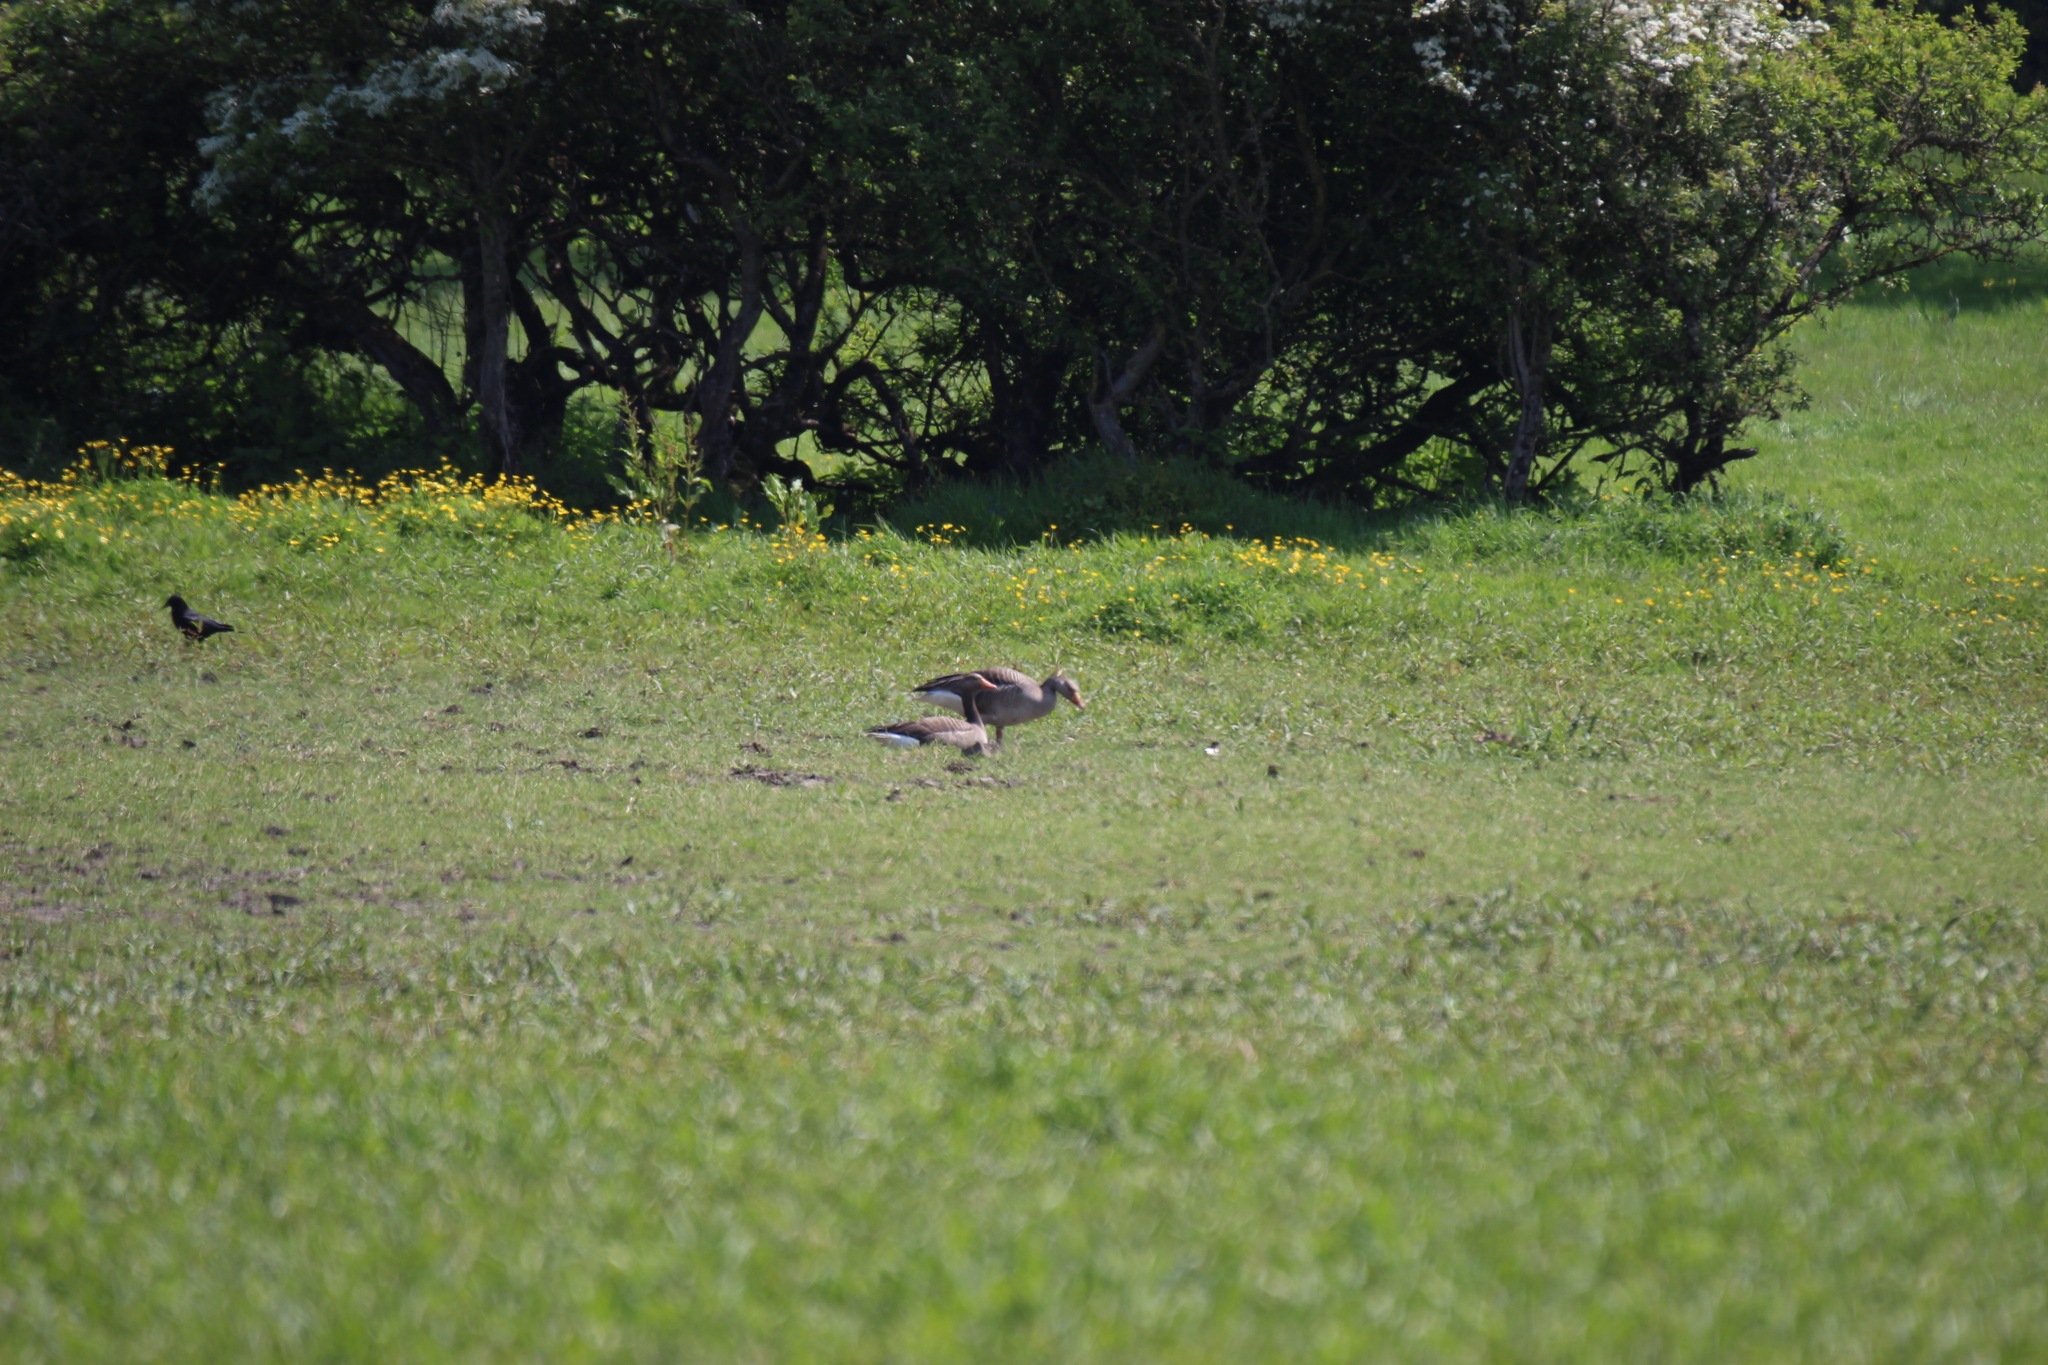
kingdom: Animalia
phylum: Chordata
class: Aves
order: Anseriformes
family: Anatidae
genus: Anser
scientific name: Anser anser
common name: Greylag goose
